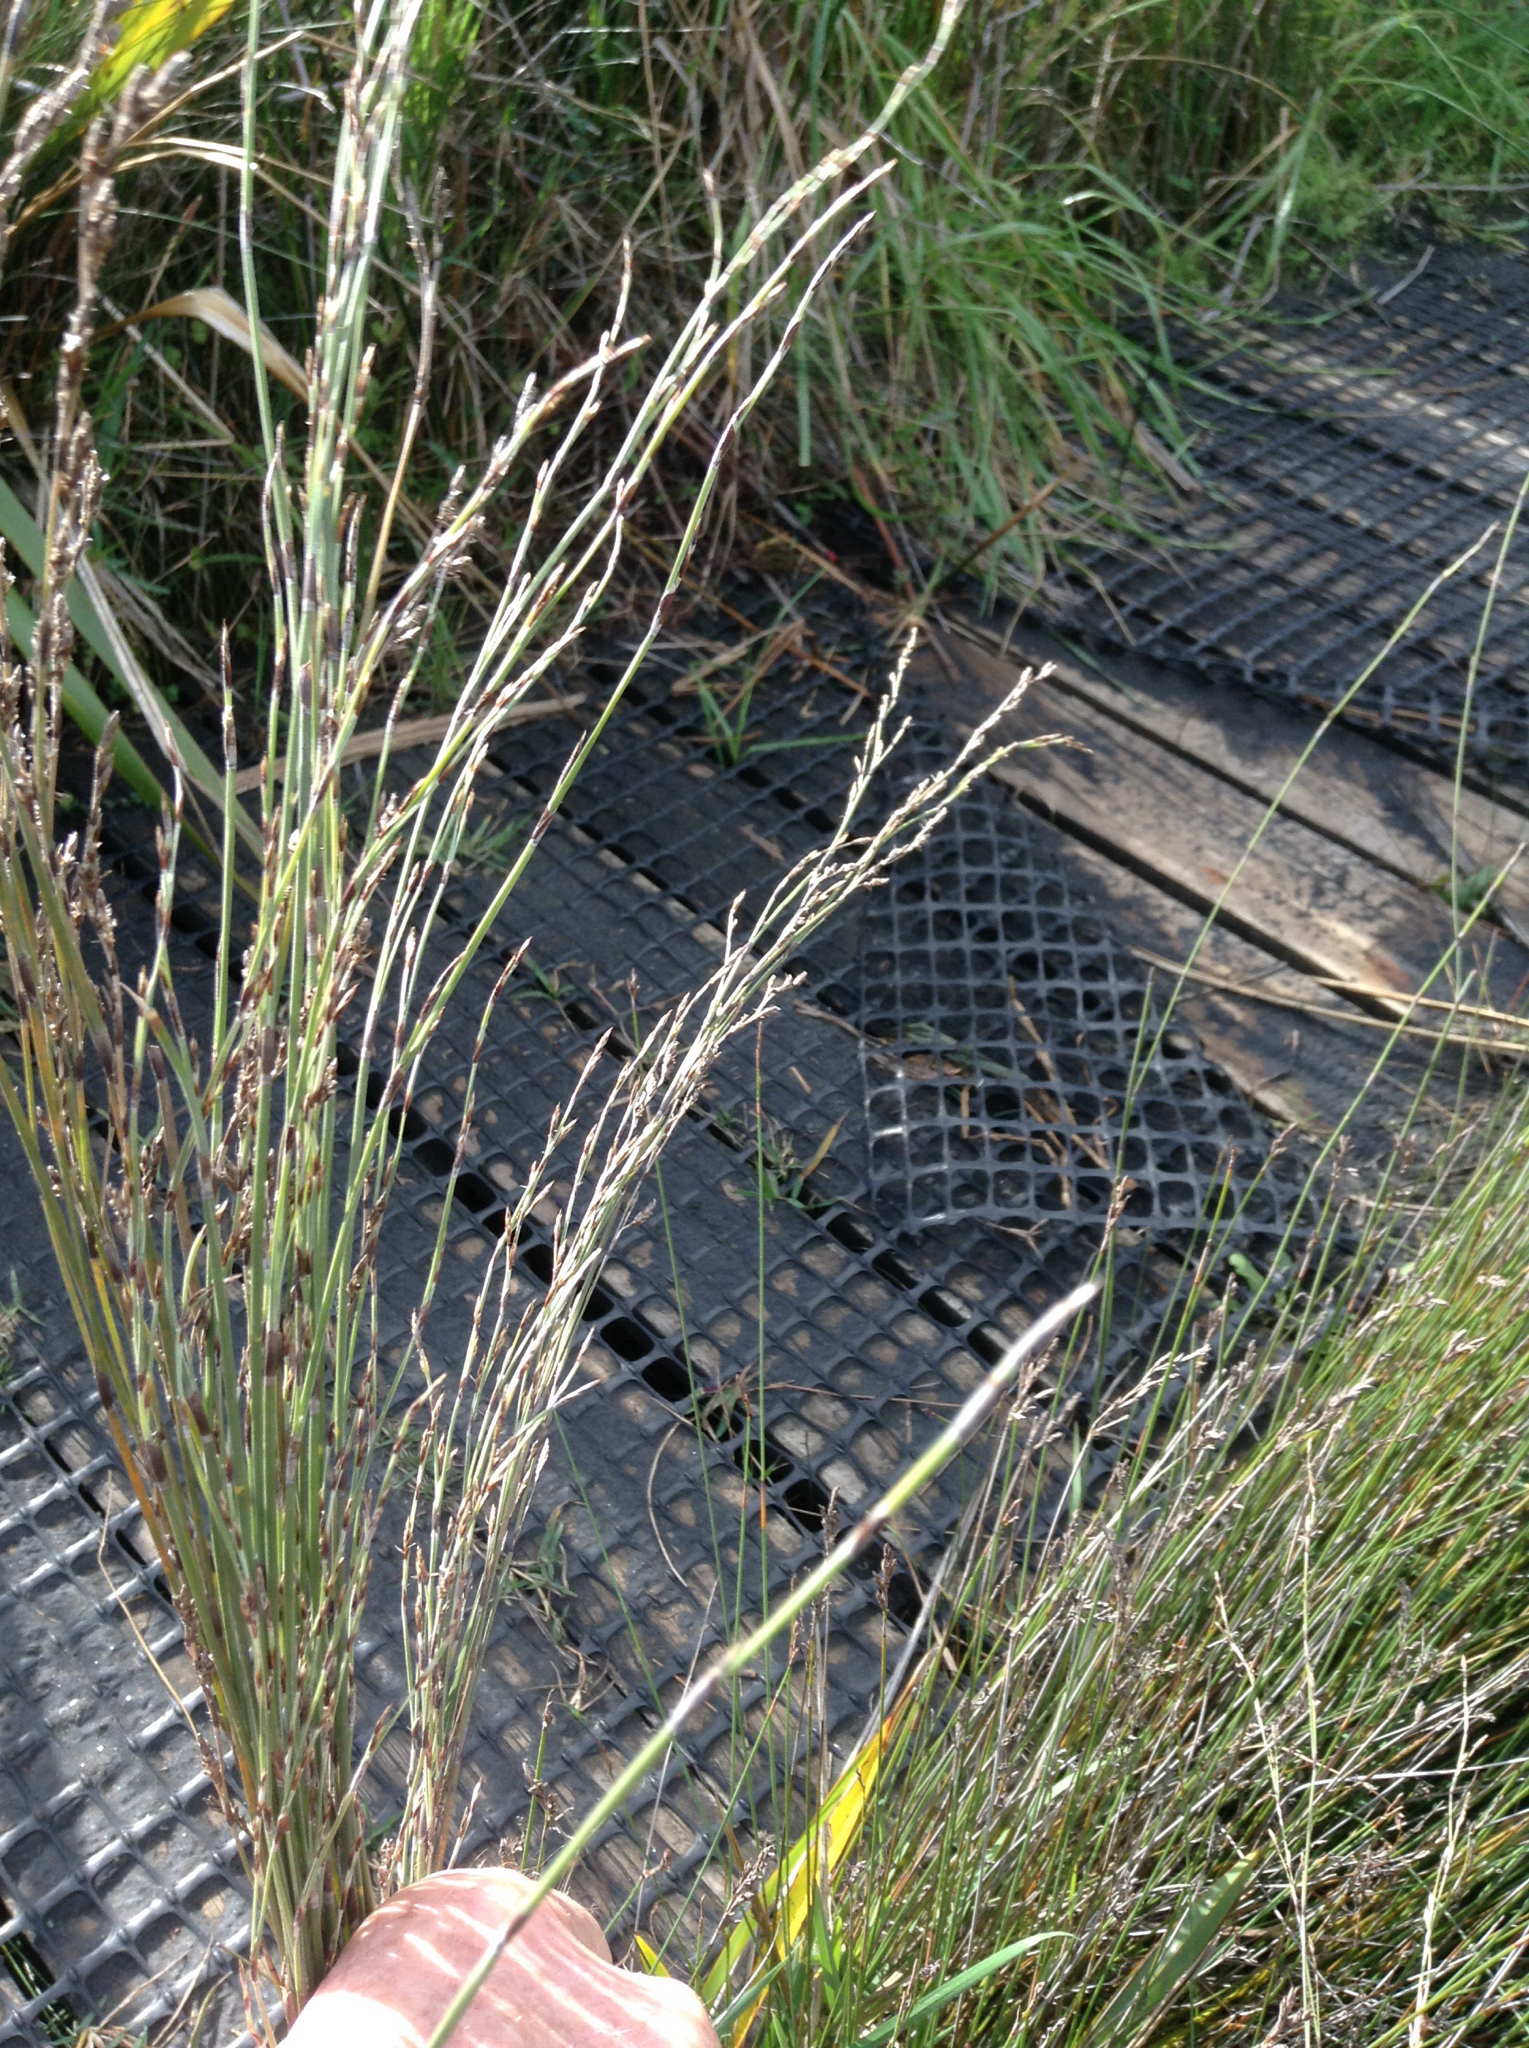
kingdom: Plantae
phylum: Tracheophyta
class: Liliopsida
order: Poales
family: Restionaceae
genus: Apodasmia
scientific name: Apodasmia similis
